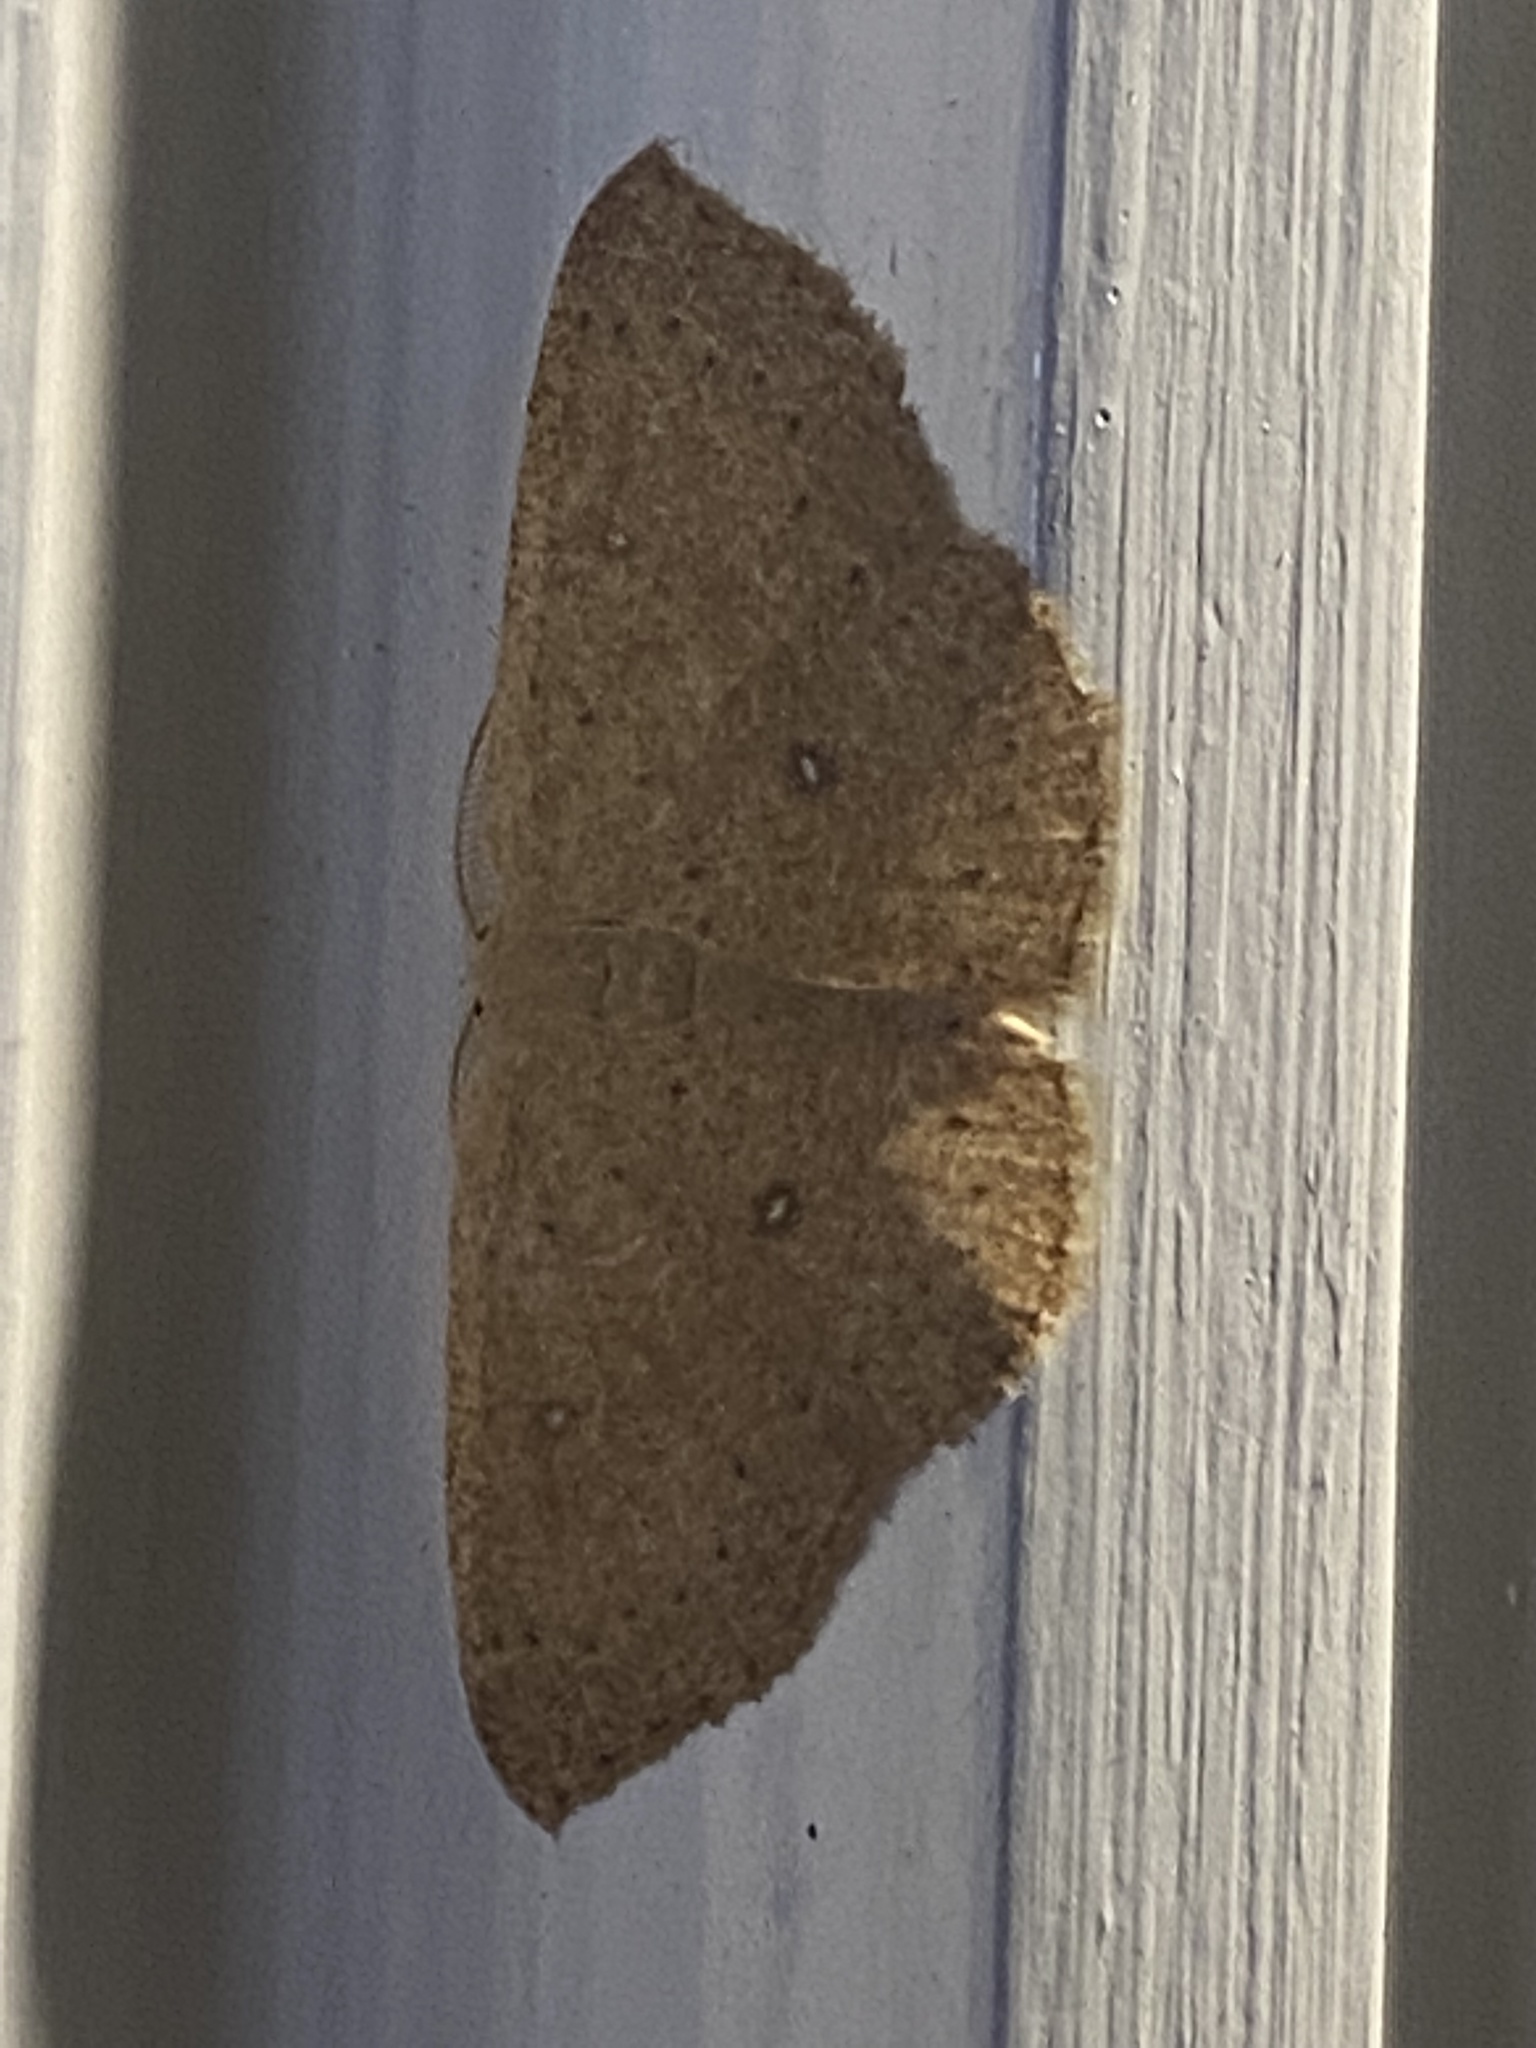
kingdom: Animalia
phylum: Arthropoda
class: Insecta
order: Lepidoptera
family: Geometridae
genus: Cyclophora
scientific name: Cyclophora packardi
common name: Packard's wave
